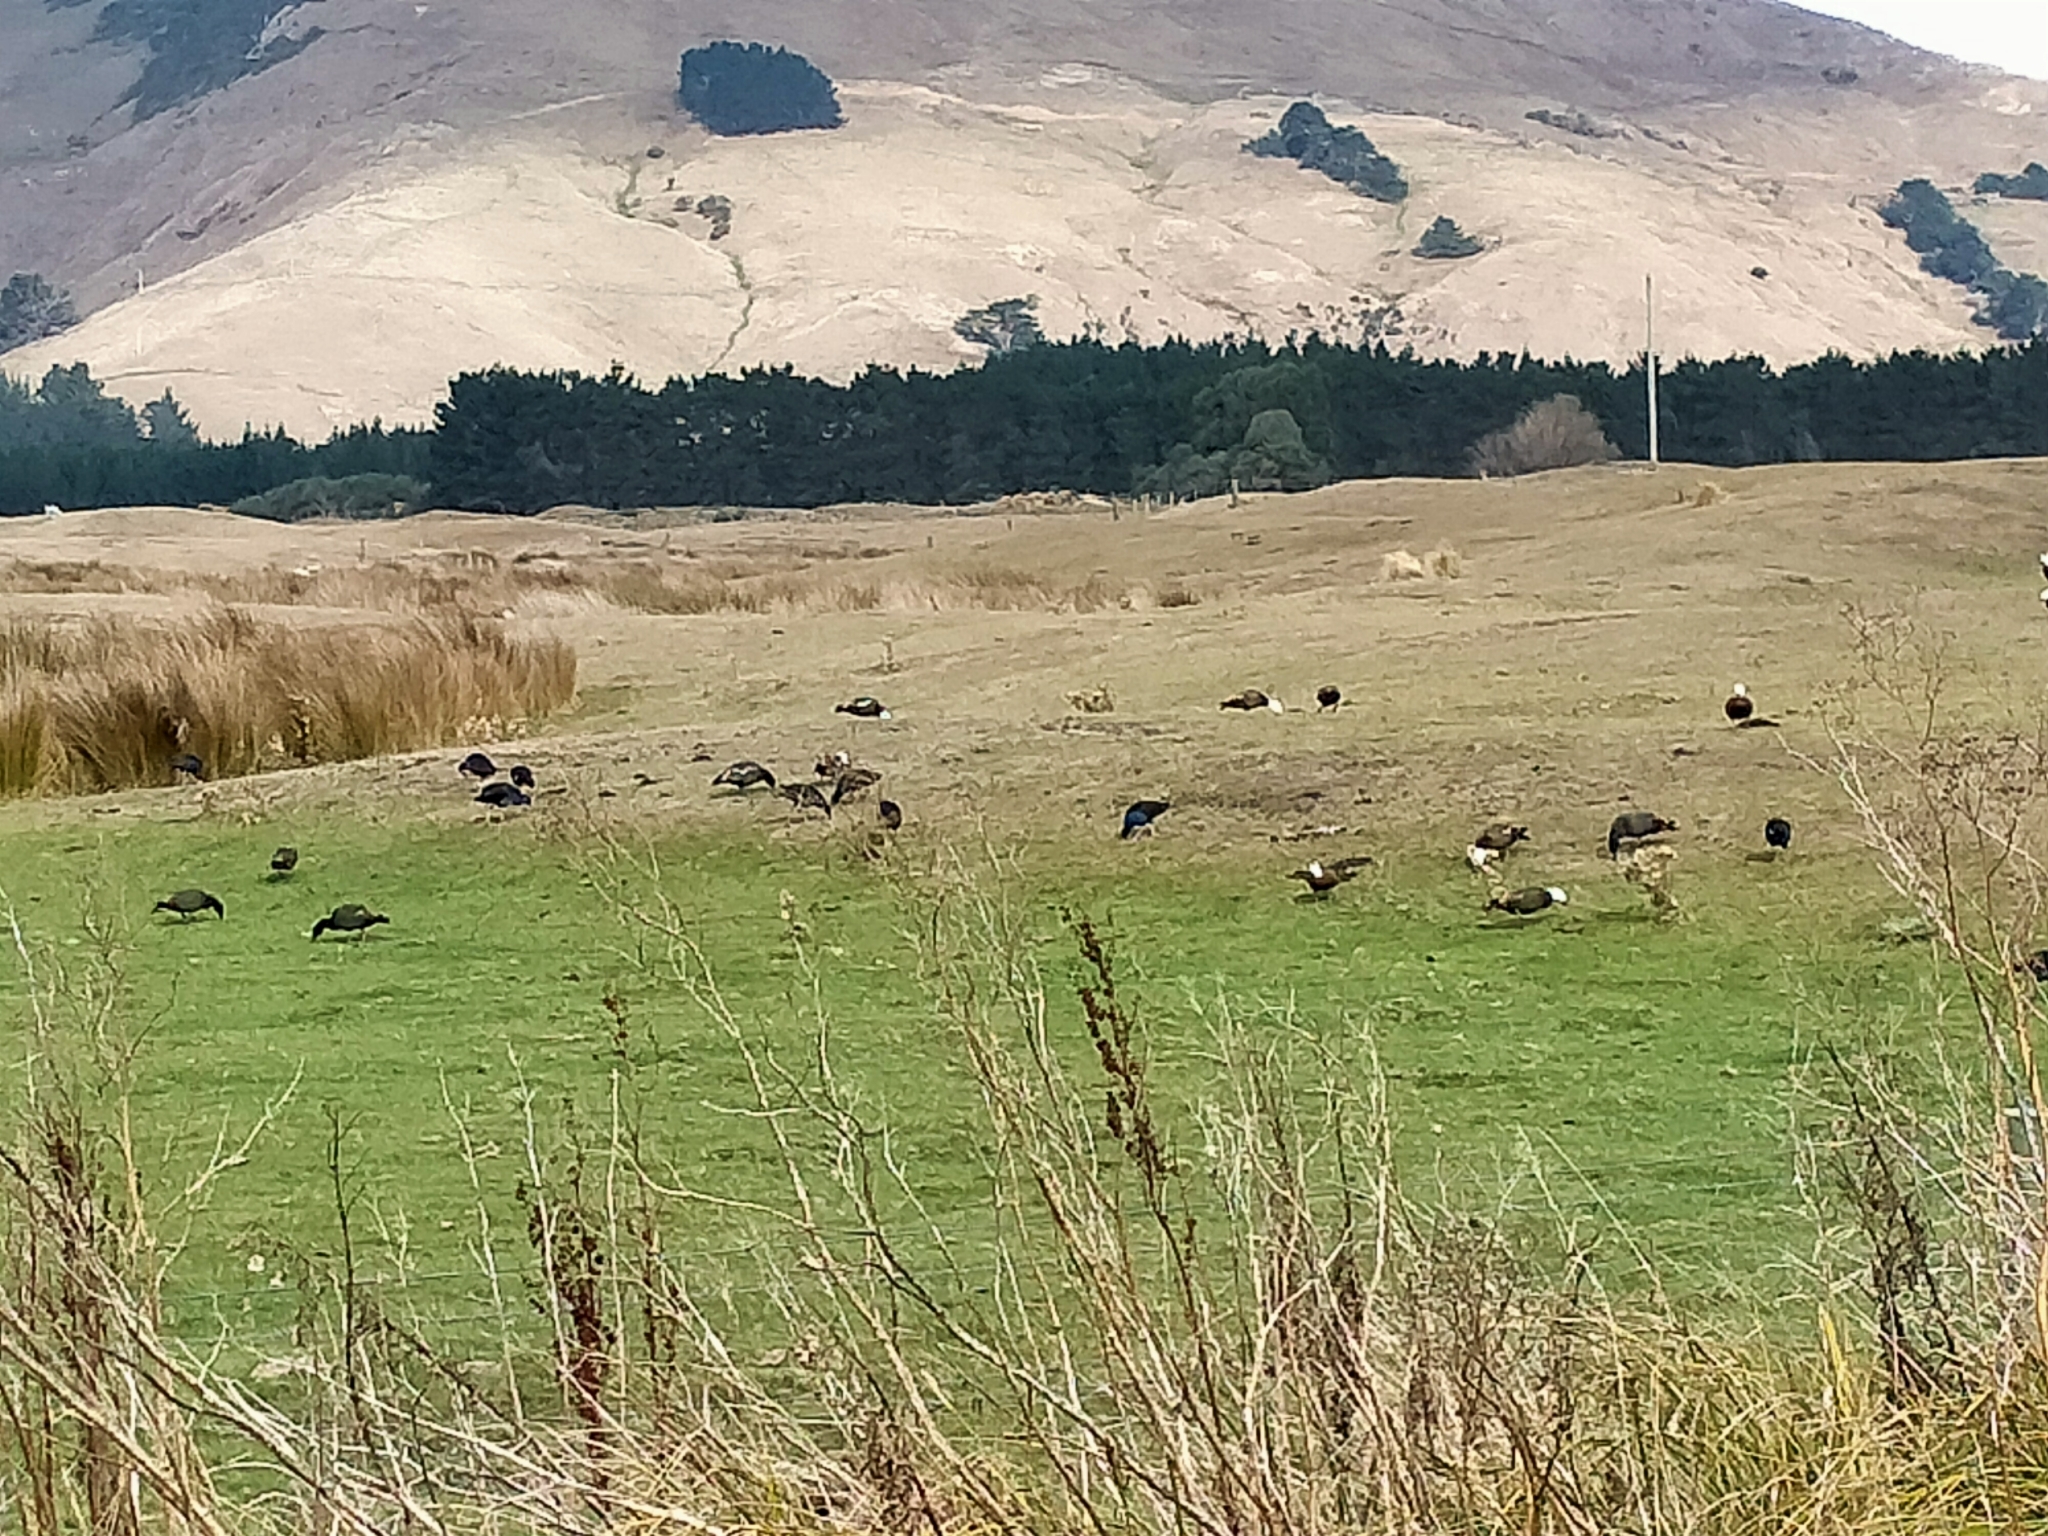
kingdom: Animalia
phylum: Chordata
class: Aves
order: Anseriformes
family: Anatidae
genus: Tadorna
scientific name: Tadorna variegata
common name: Paradise shelduck
